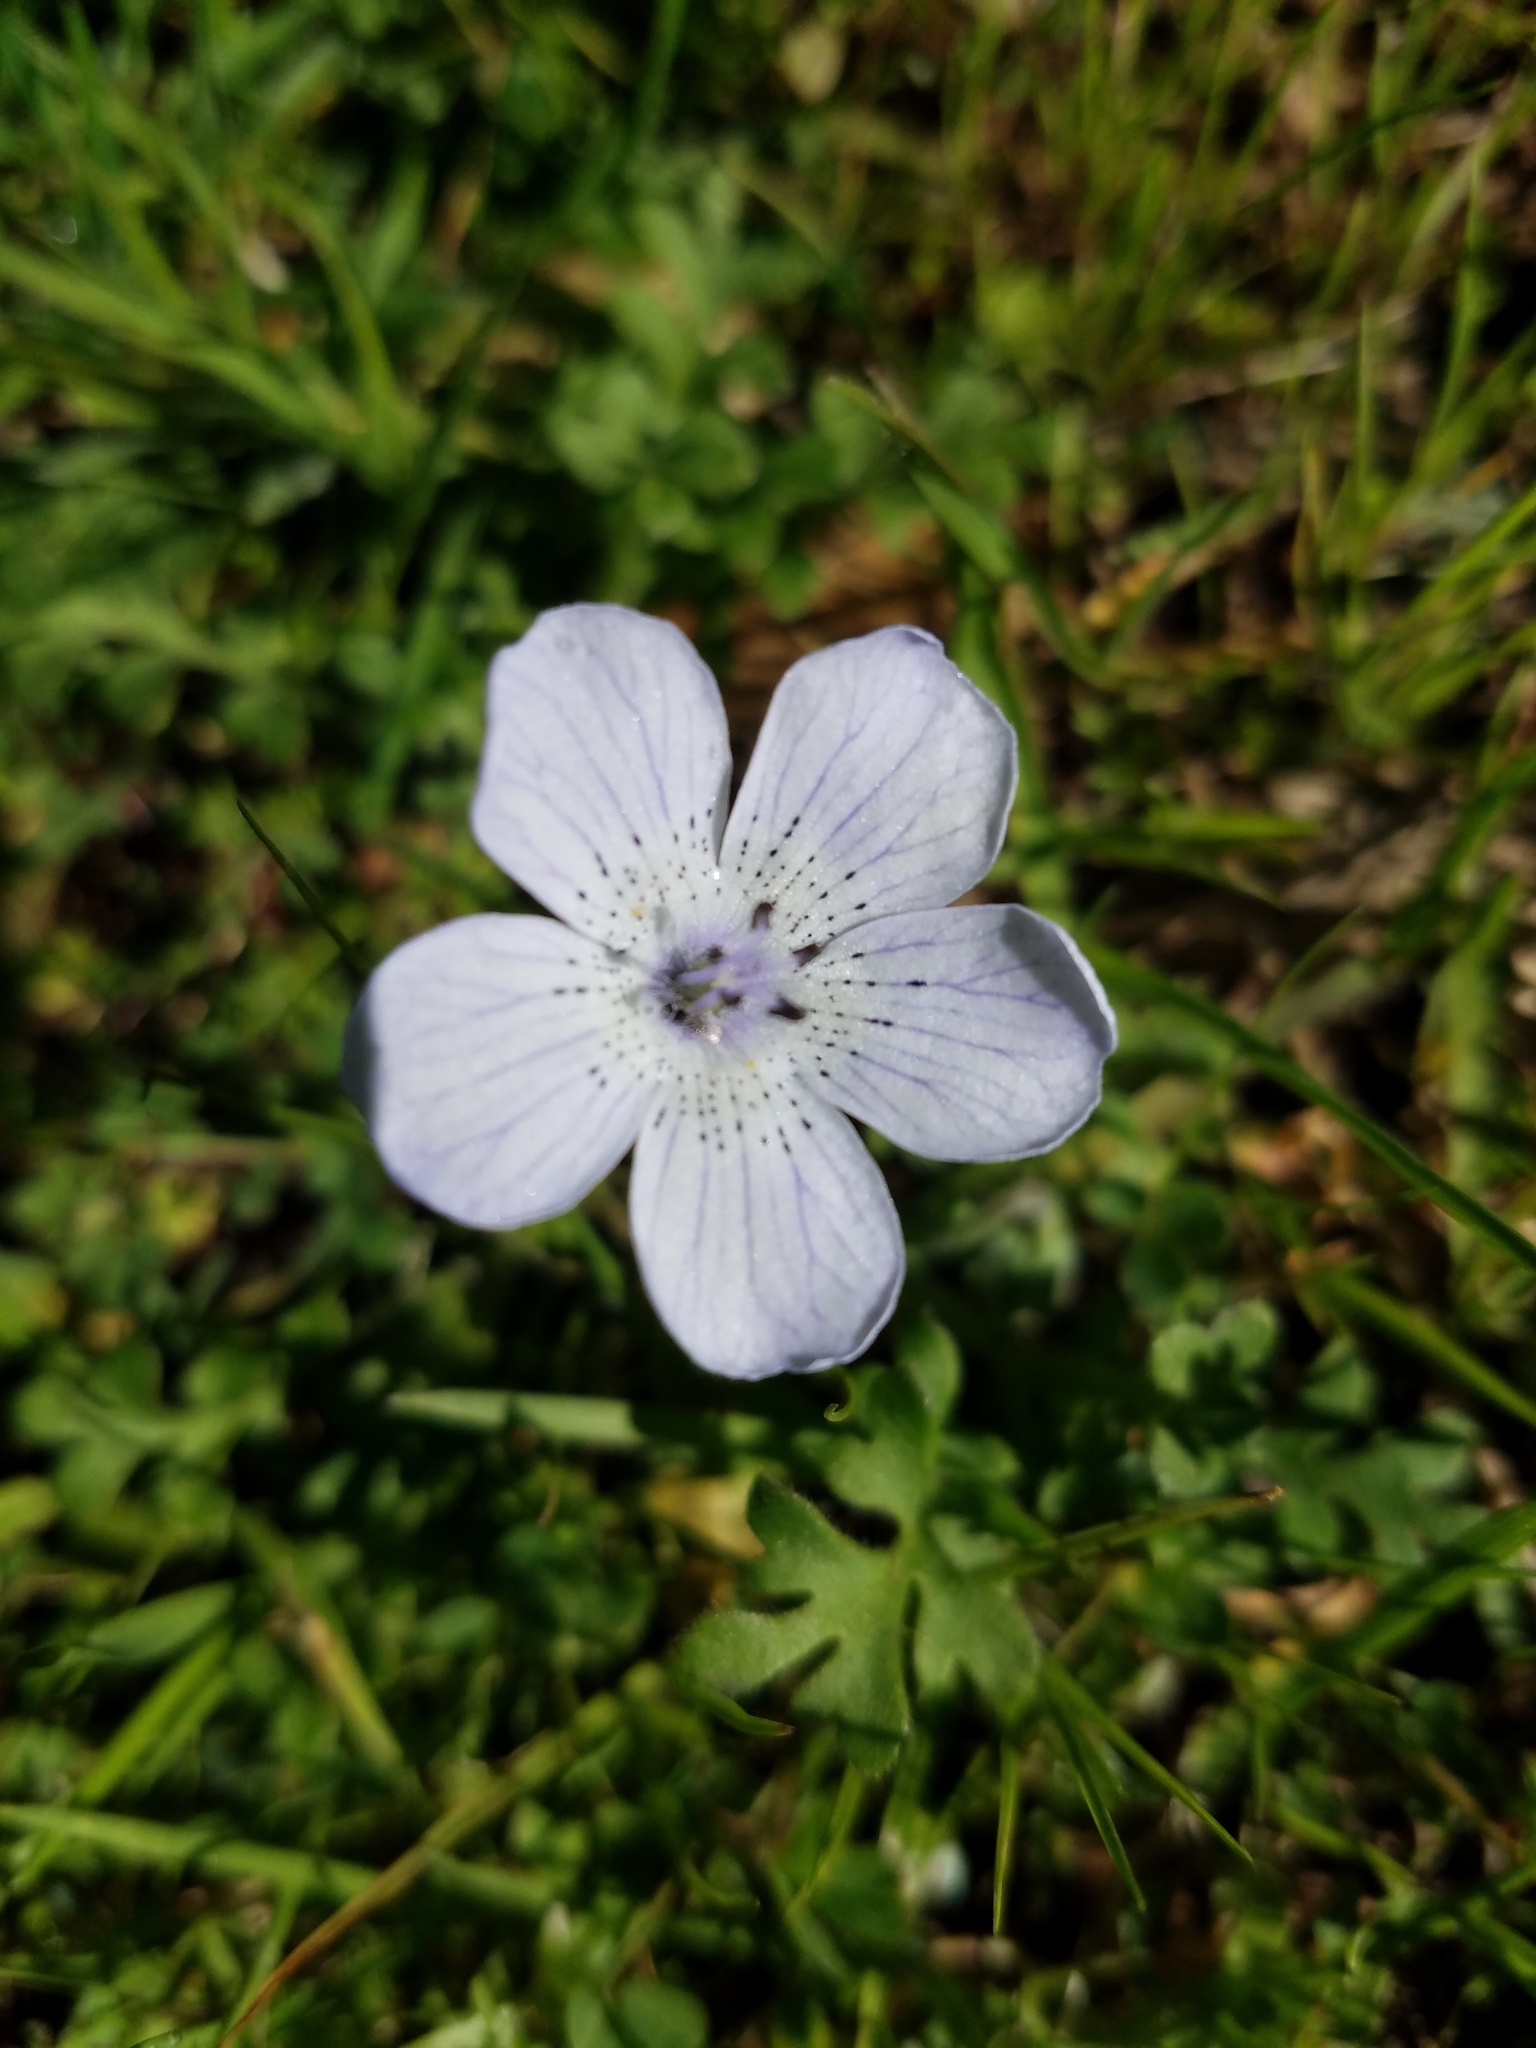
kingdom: Plantae
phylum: Tracheophyta
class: Magnoliopsida
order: Boraginales
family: Hydrophyllaceae
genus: Nemophila
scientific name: Nemophila menziesii
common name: Baby's-blue-eyes
